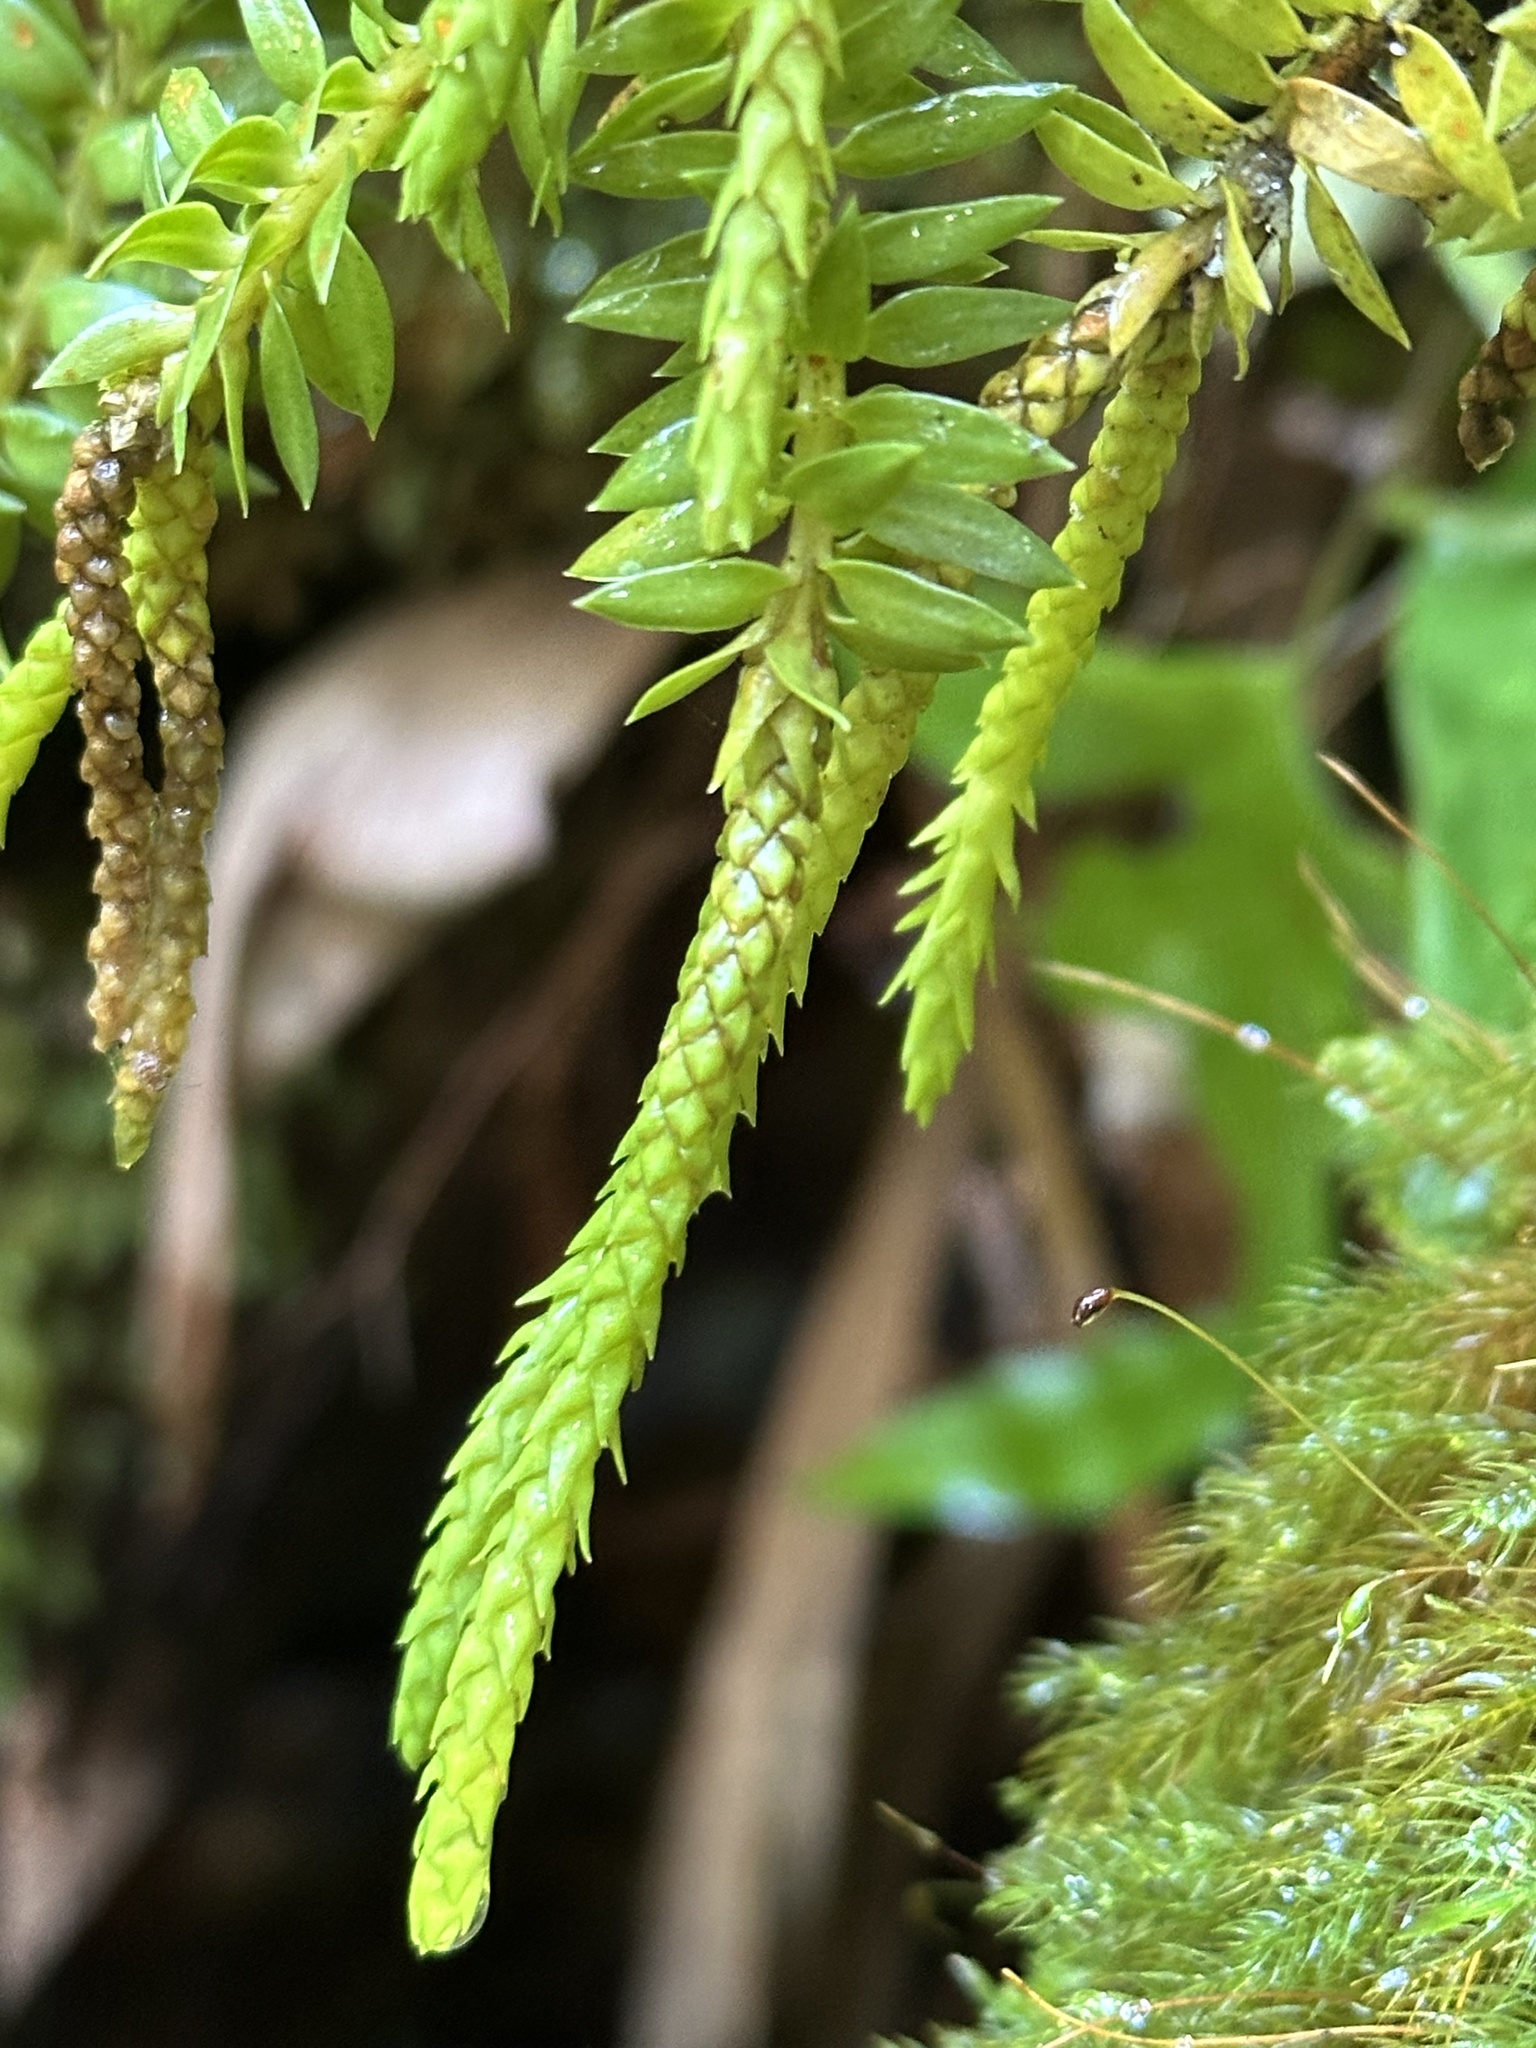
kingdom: Plantae
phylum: Tracheophyta
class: Lycopodiopsida
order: Lycopodiales
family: Lycopodiaceae
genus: Phlegmariurus
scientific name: Phlegmariurus phyllanthus
